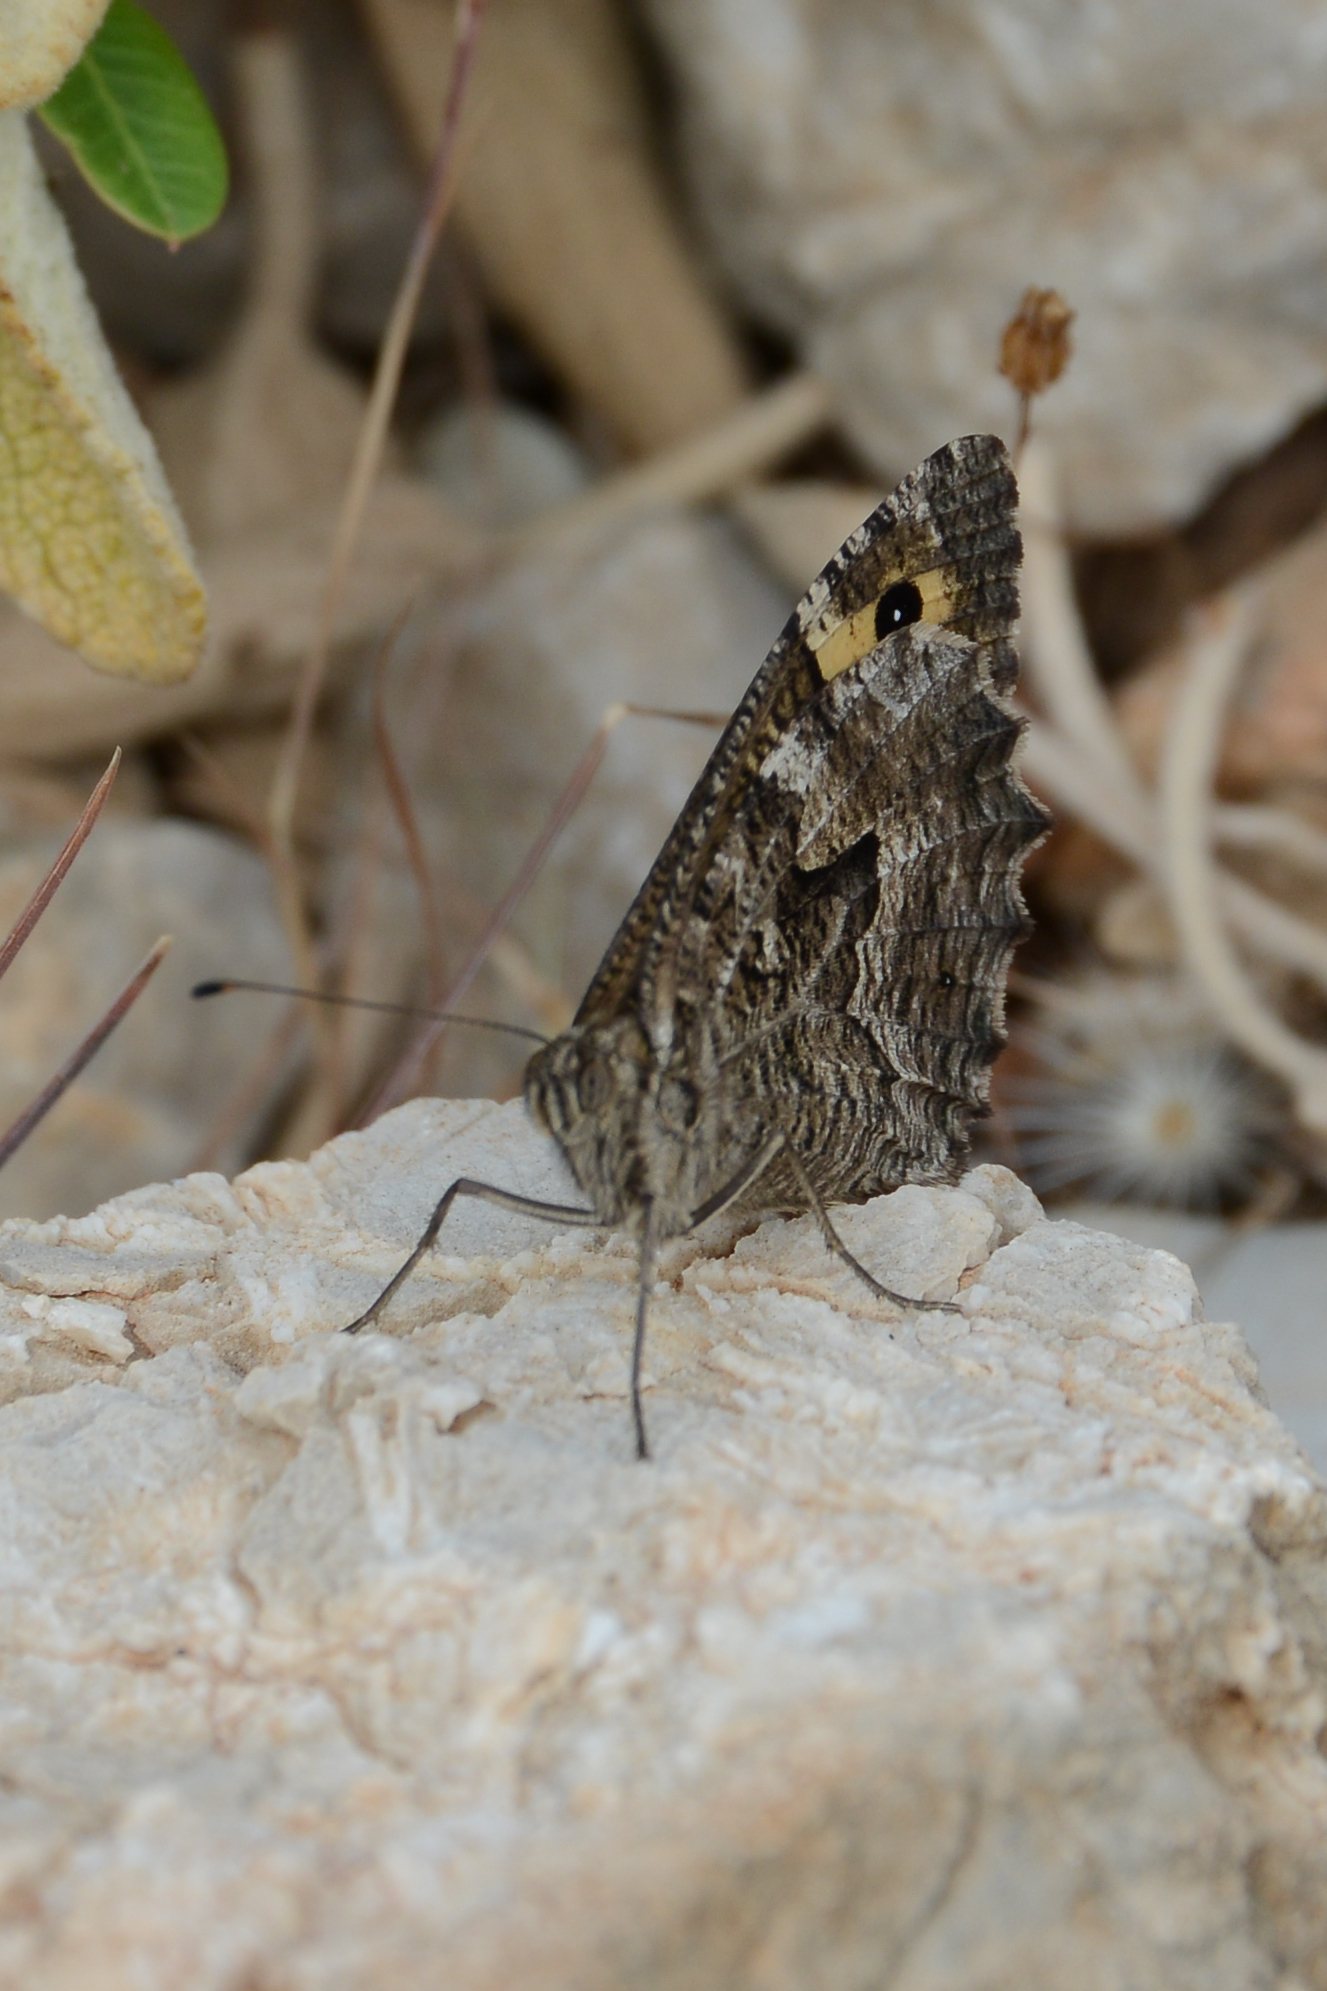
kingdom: Animalia
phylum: Arthropoda
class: Insecta
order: Lepidoptera
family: Nymphalidae
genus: Hipparchia
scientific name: Hipparchia cretica
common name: Cretan grayling
